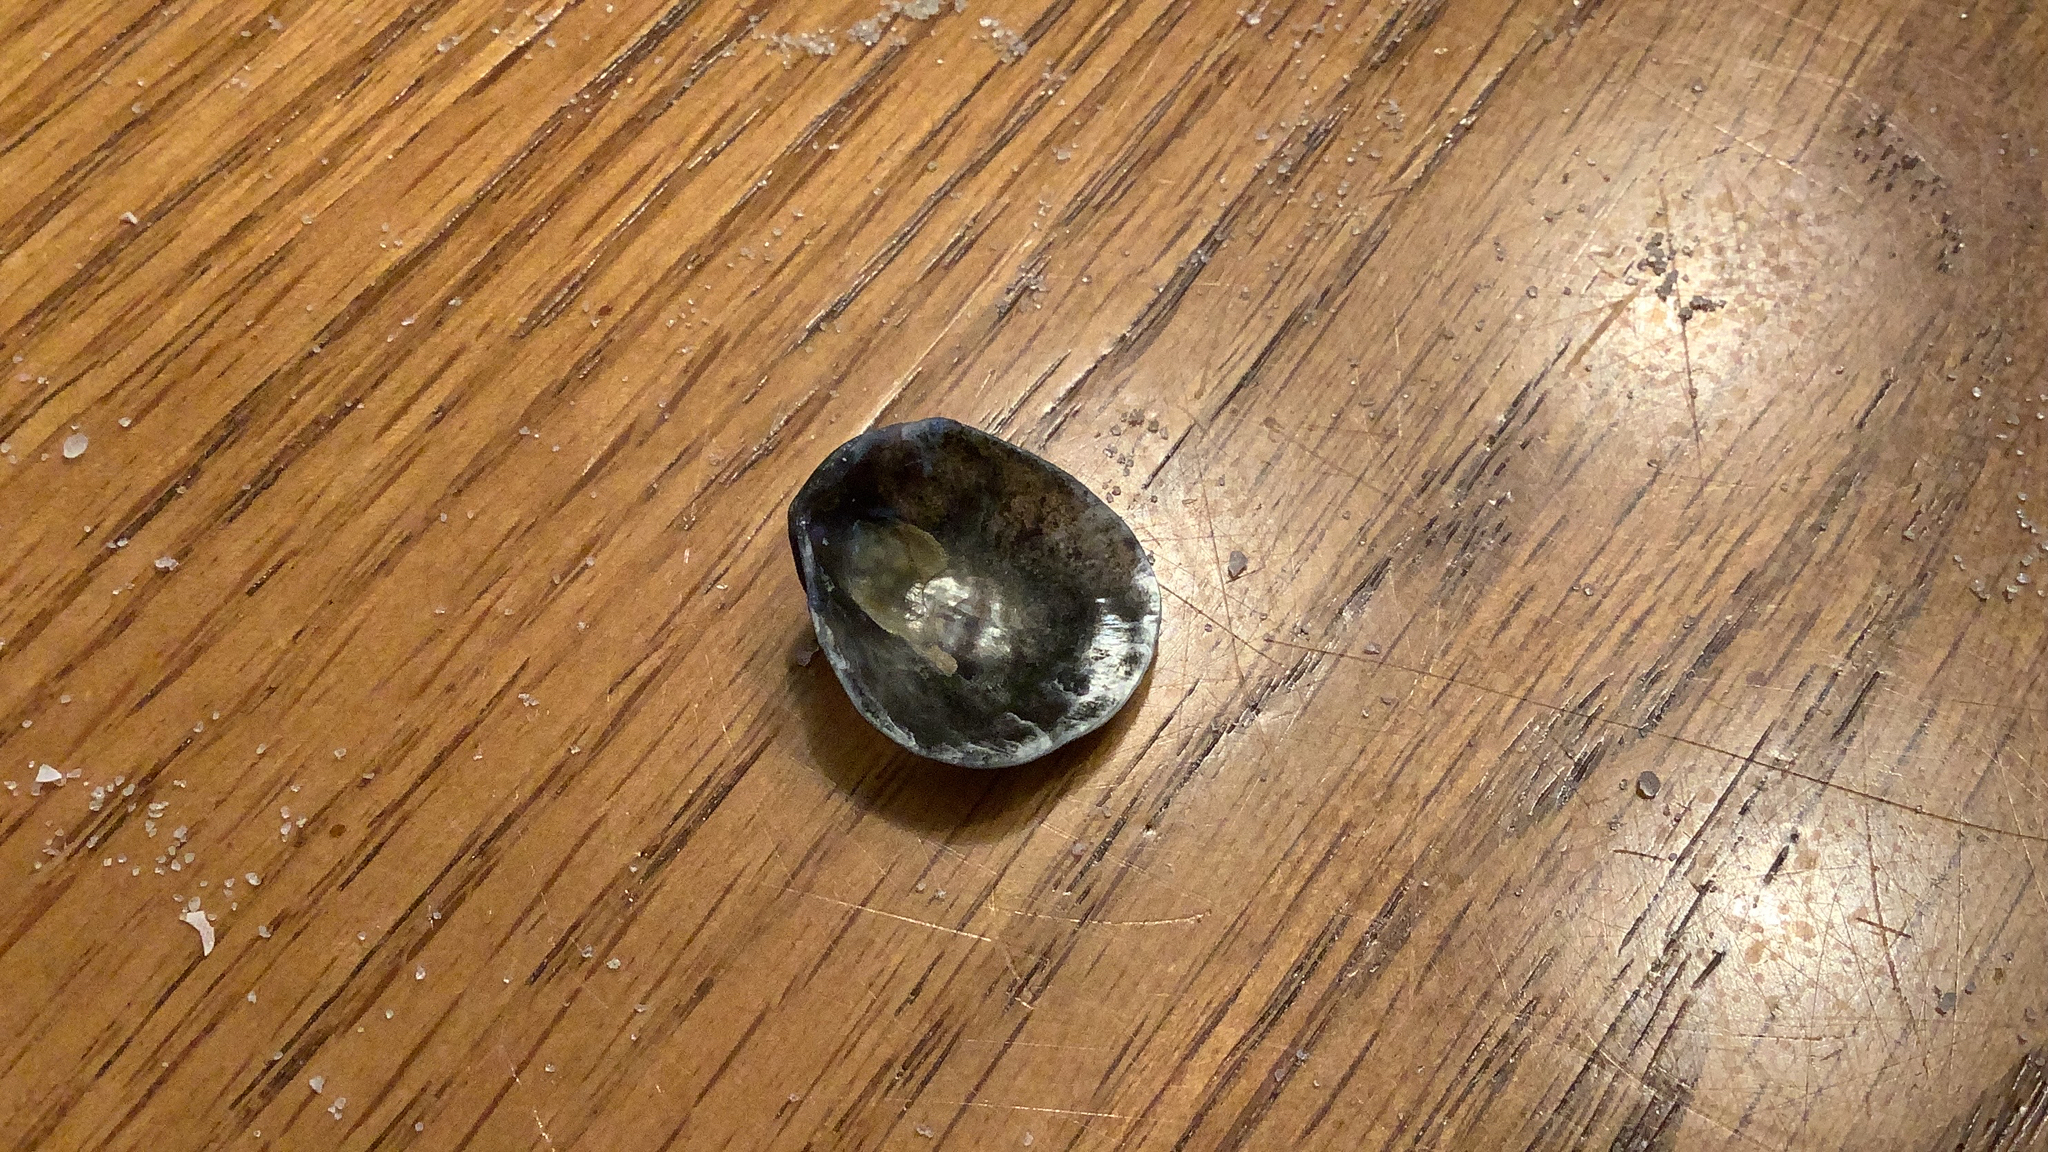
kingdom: Animalia
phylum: Mollusca
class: Bivalvia
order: Pectinida
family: Anomiidae
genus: Anomia
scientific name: Anomia simplex
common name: Common jingle shell
